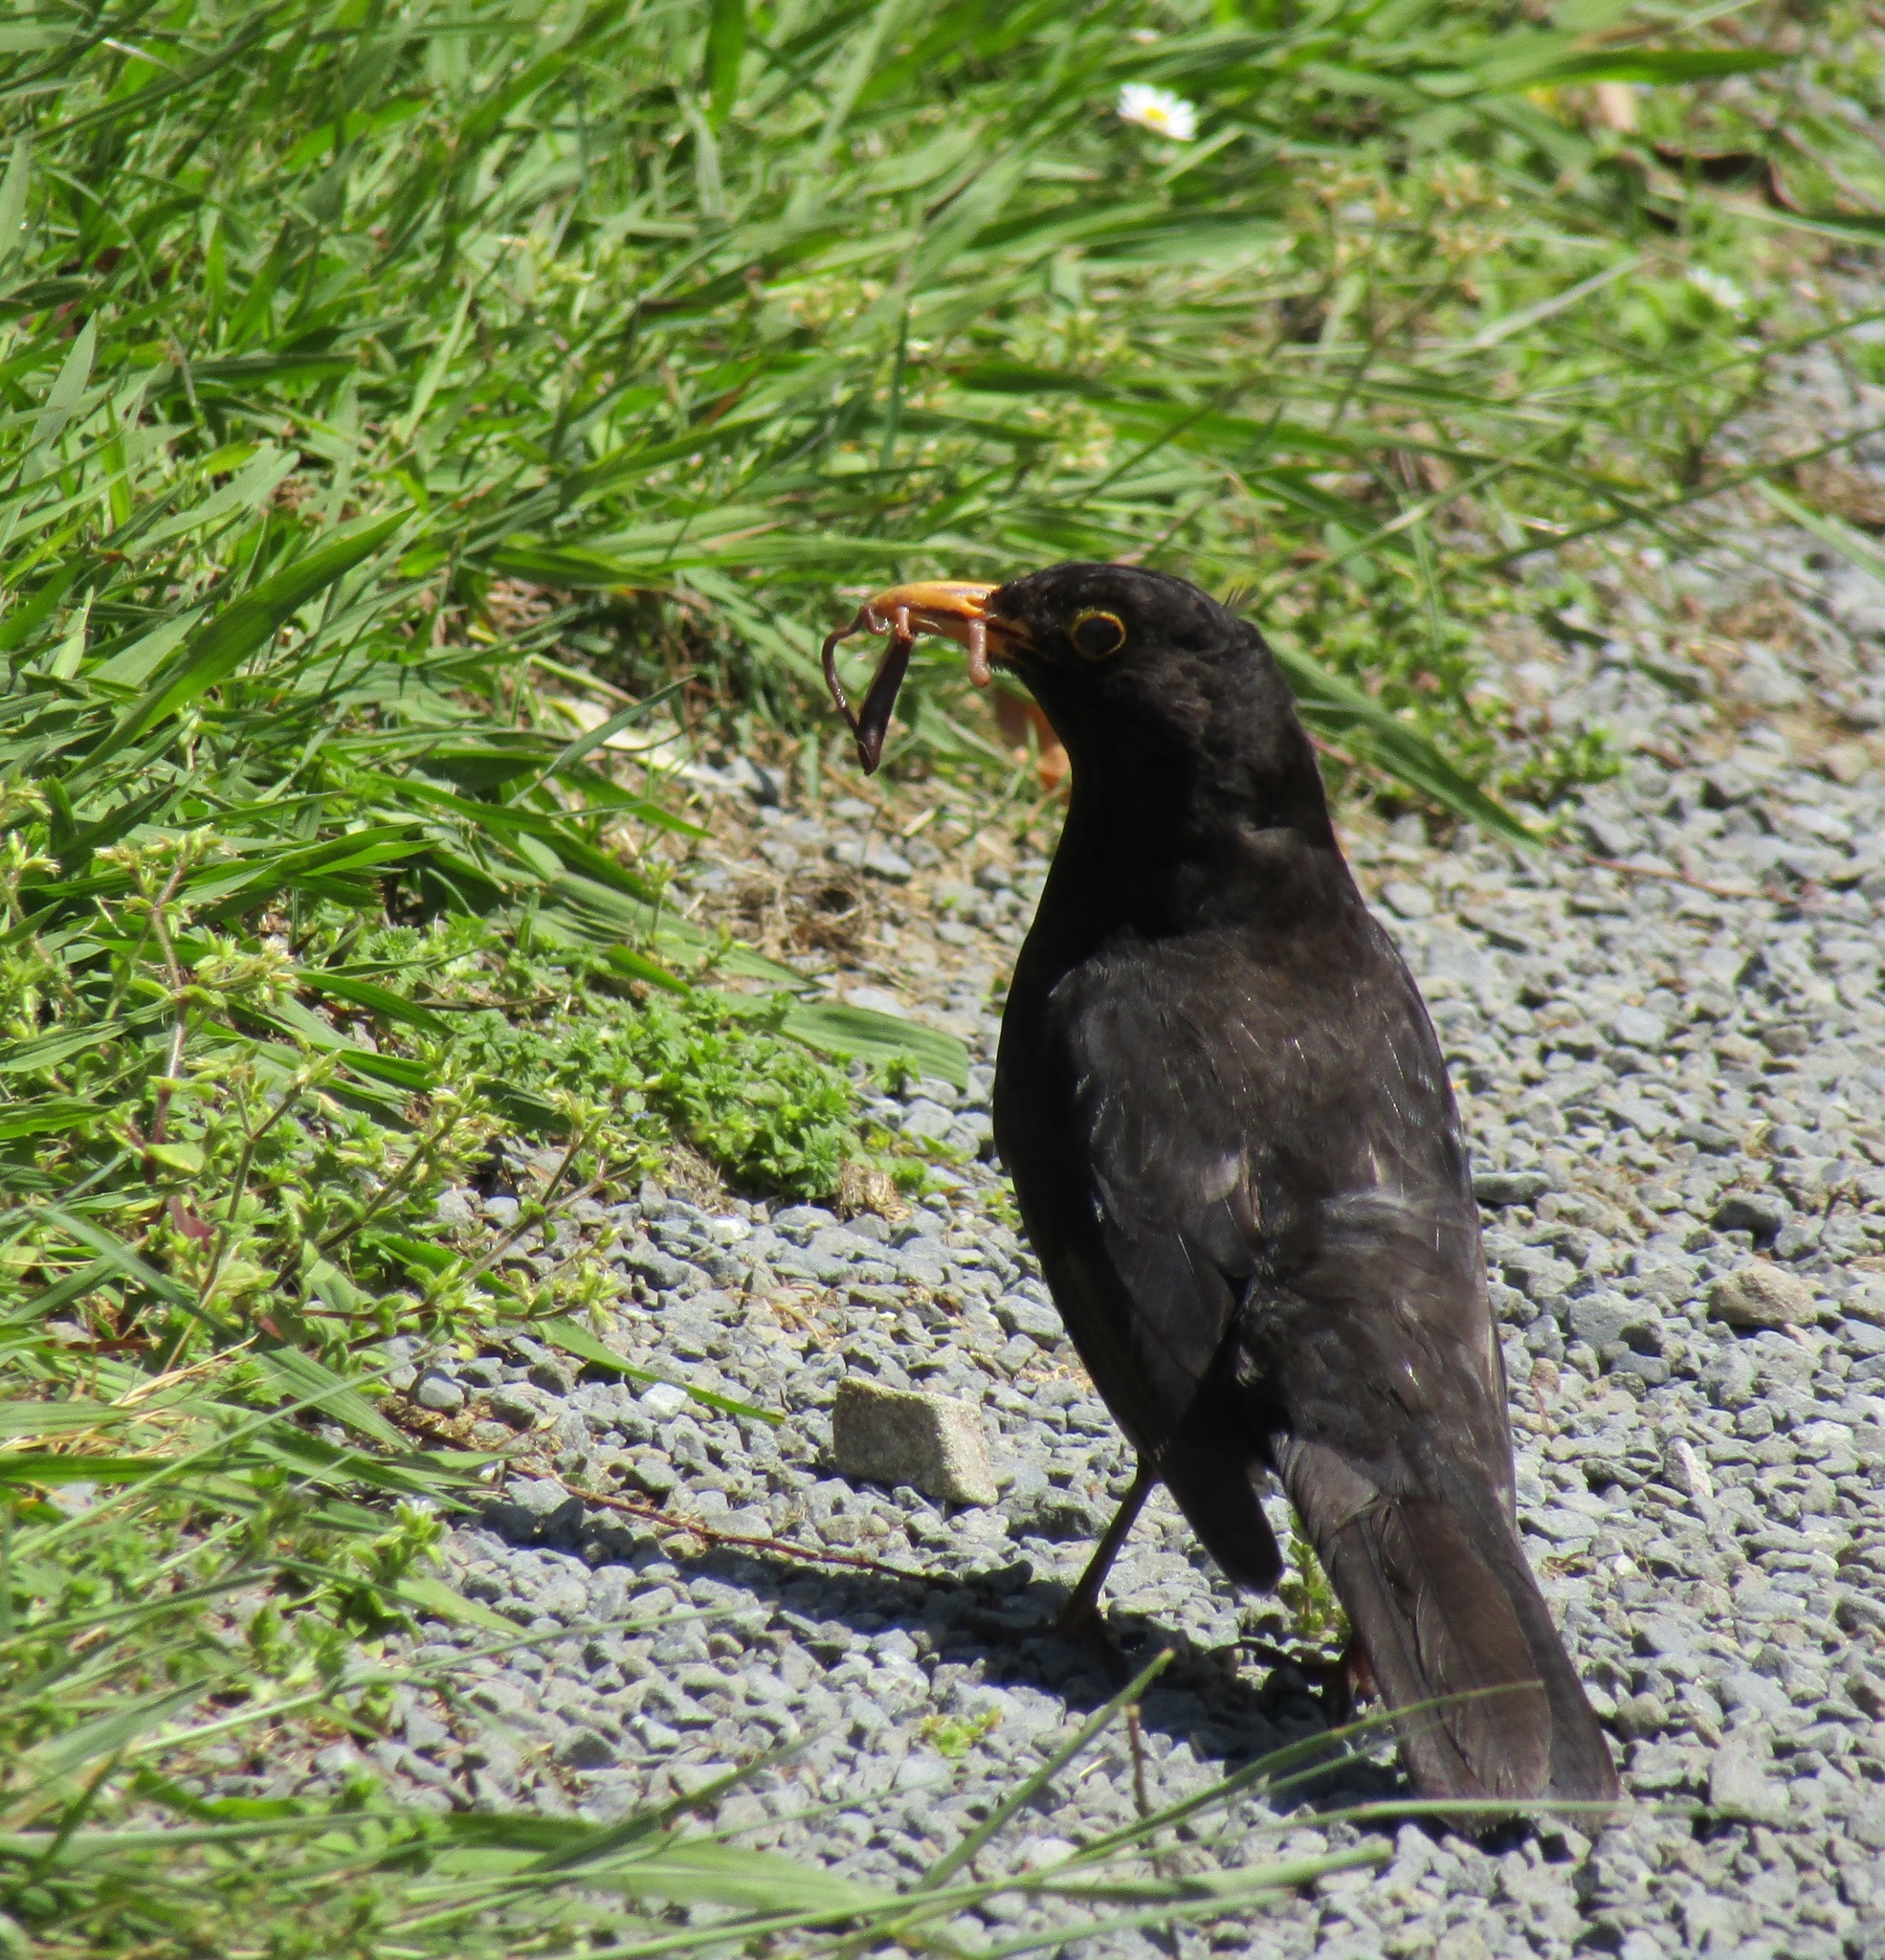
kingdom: Animalia
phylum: Chordata
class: Aves
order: Passeriformes
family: Turdidae
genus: Turdus
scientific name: Turdus merula
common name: Common blackbird
